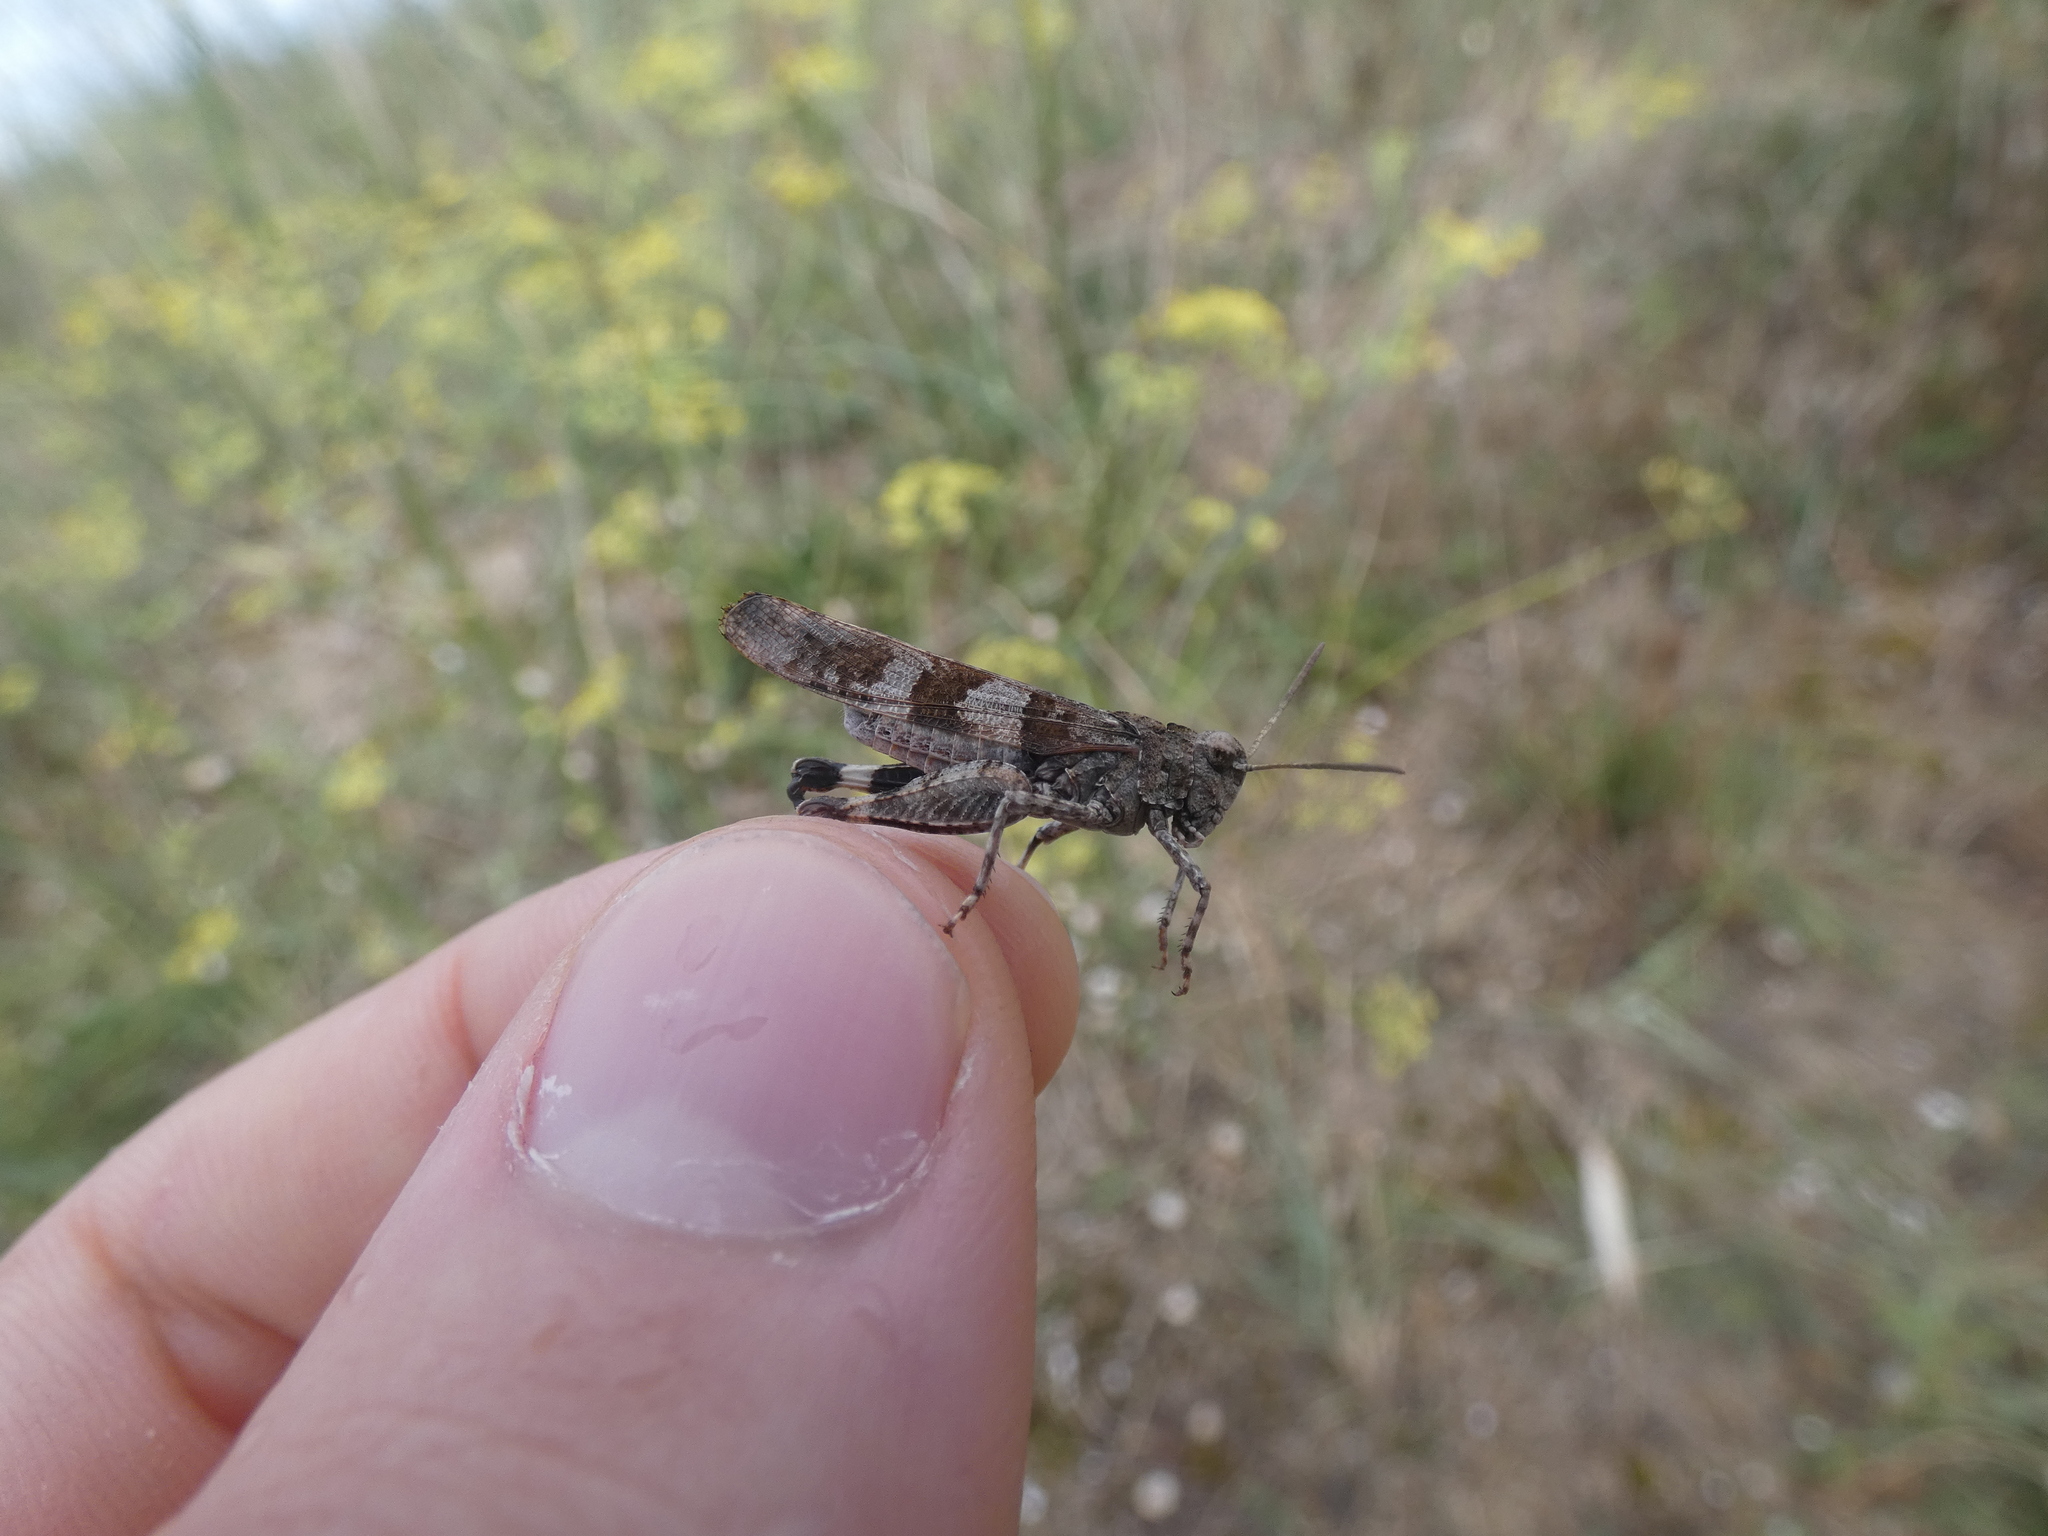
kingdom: Animalia
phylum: Arthropoda
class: Insecta
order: Orthoptera
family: Acrididae
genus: Oedipoda
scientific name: Oedipoda caerulescens
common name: Blue-winged grasshopper
